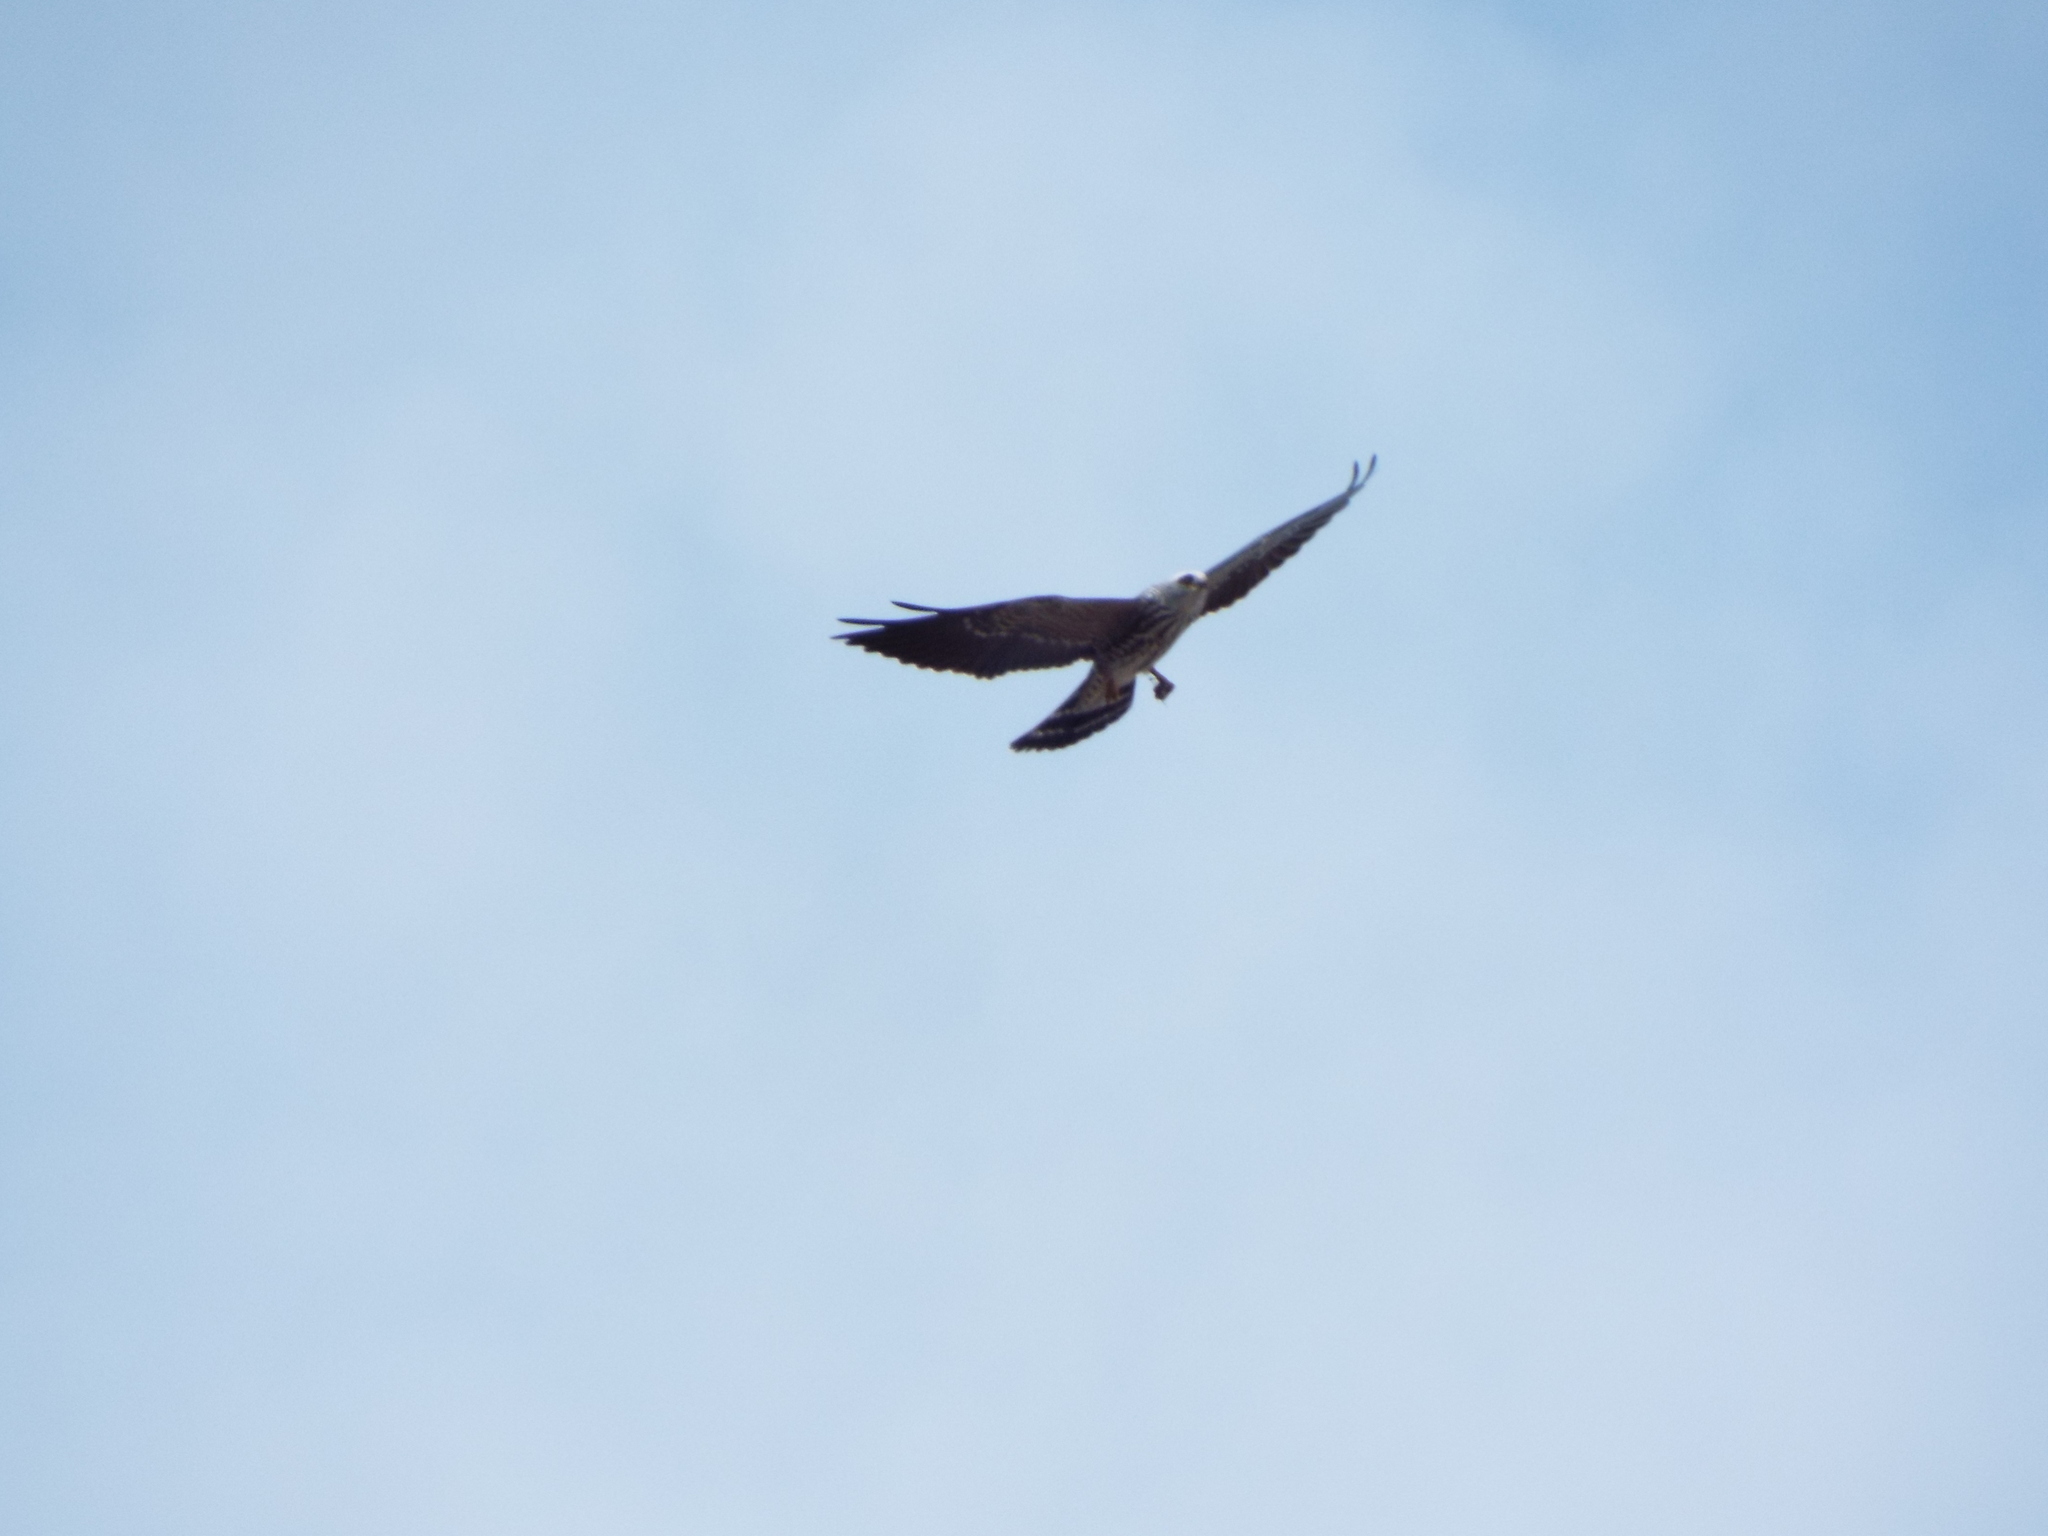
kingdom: Animalia
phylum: Chordata
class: Aves
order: Accipitriformes
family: Accipitridae
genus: Ictinia
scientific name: Ictinia mississippiensis
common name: Mississippi kite
